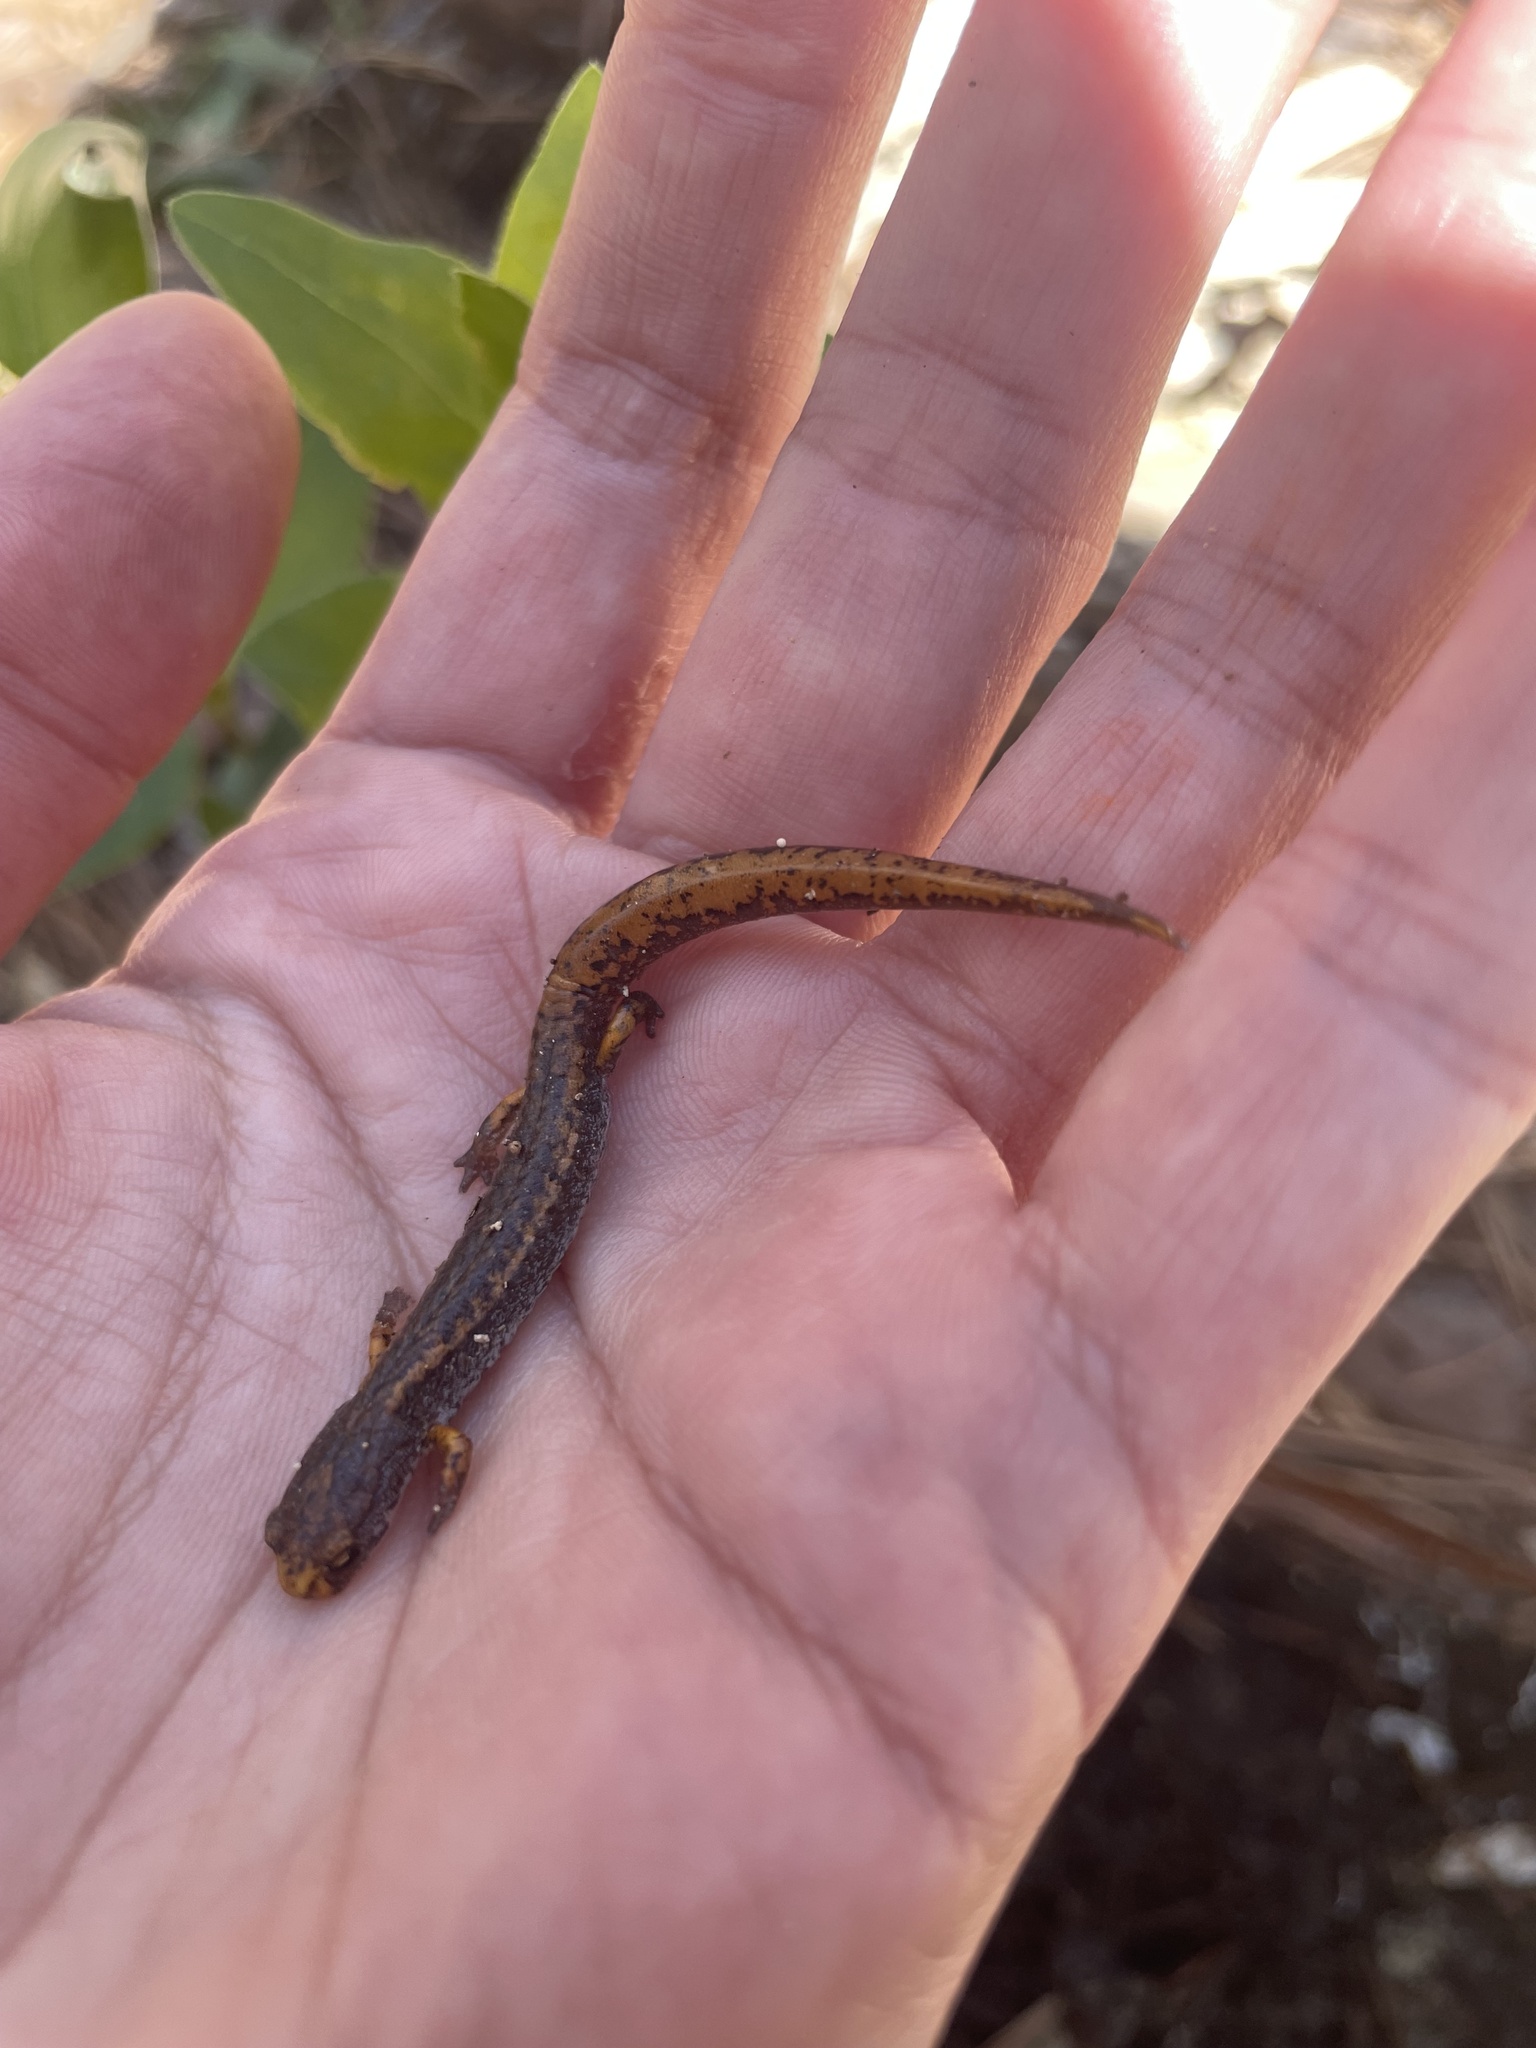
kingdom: Animalia
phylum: Chordata
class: Amphibia
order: Caudata
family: Plethodontidae
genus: Hemidactylium
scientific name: Hemidactylium scutatum
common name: Four-toed salamander
